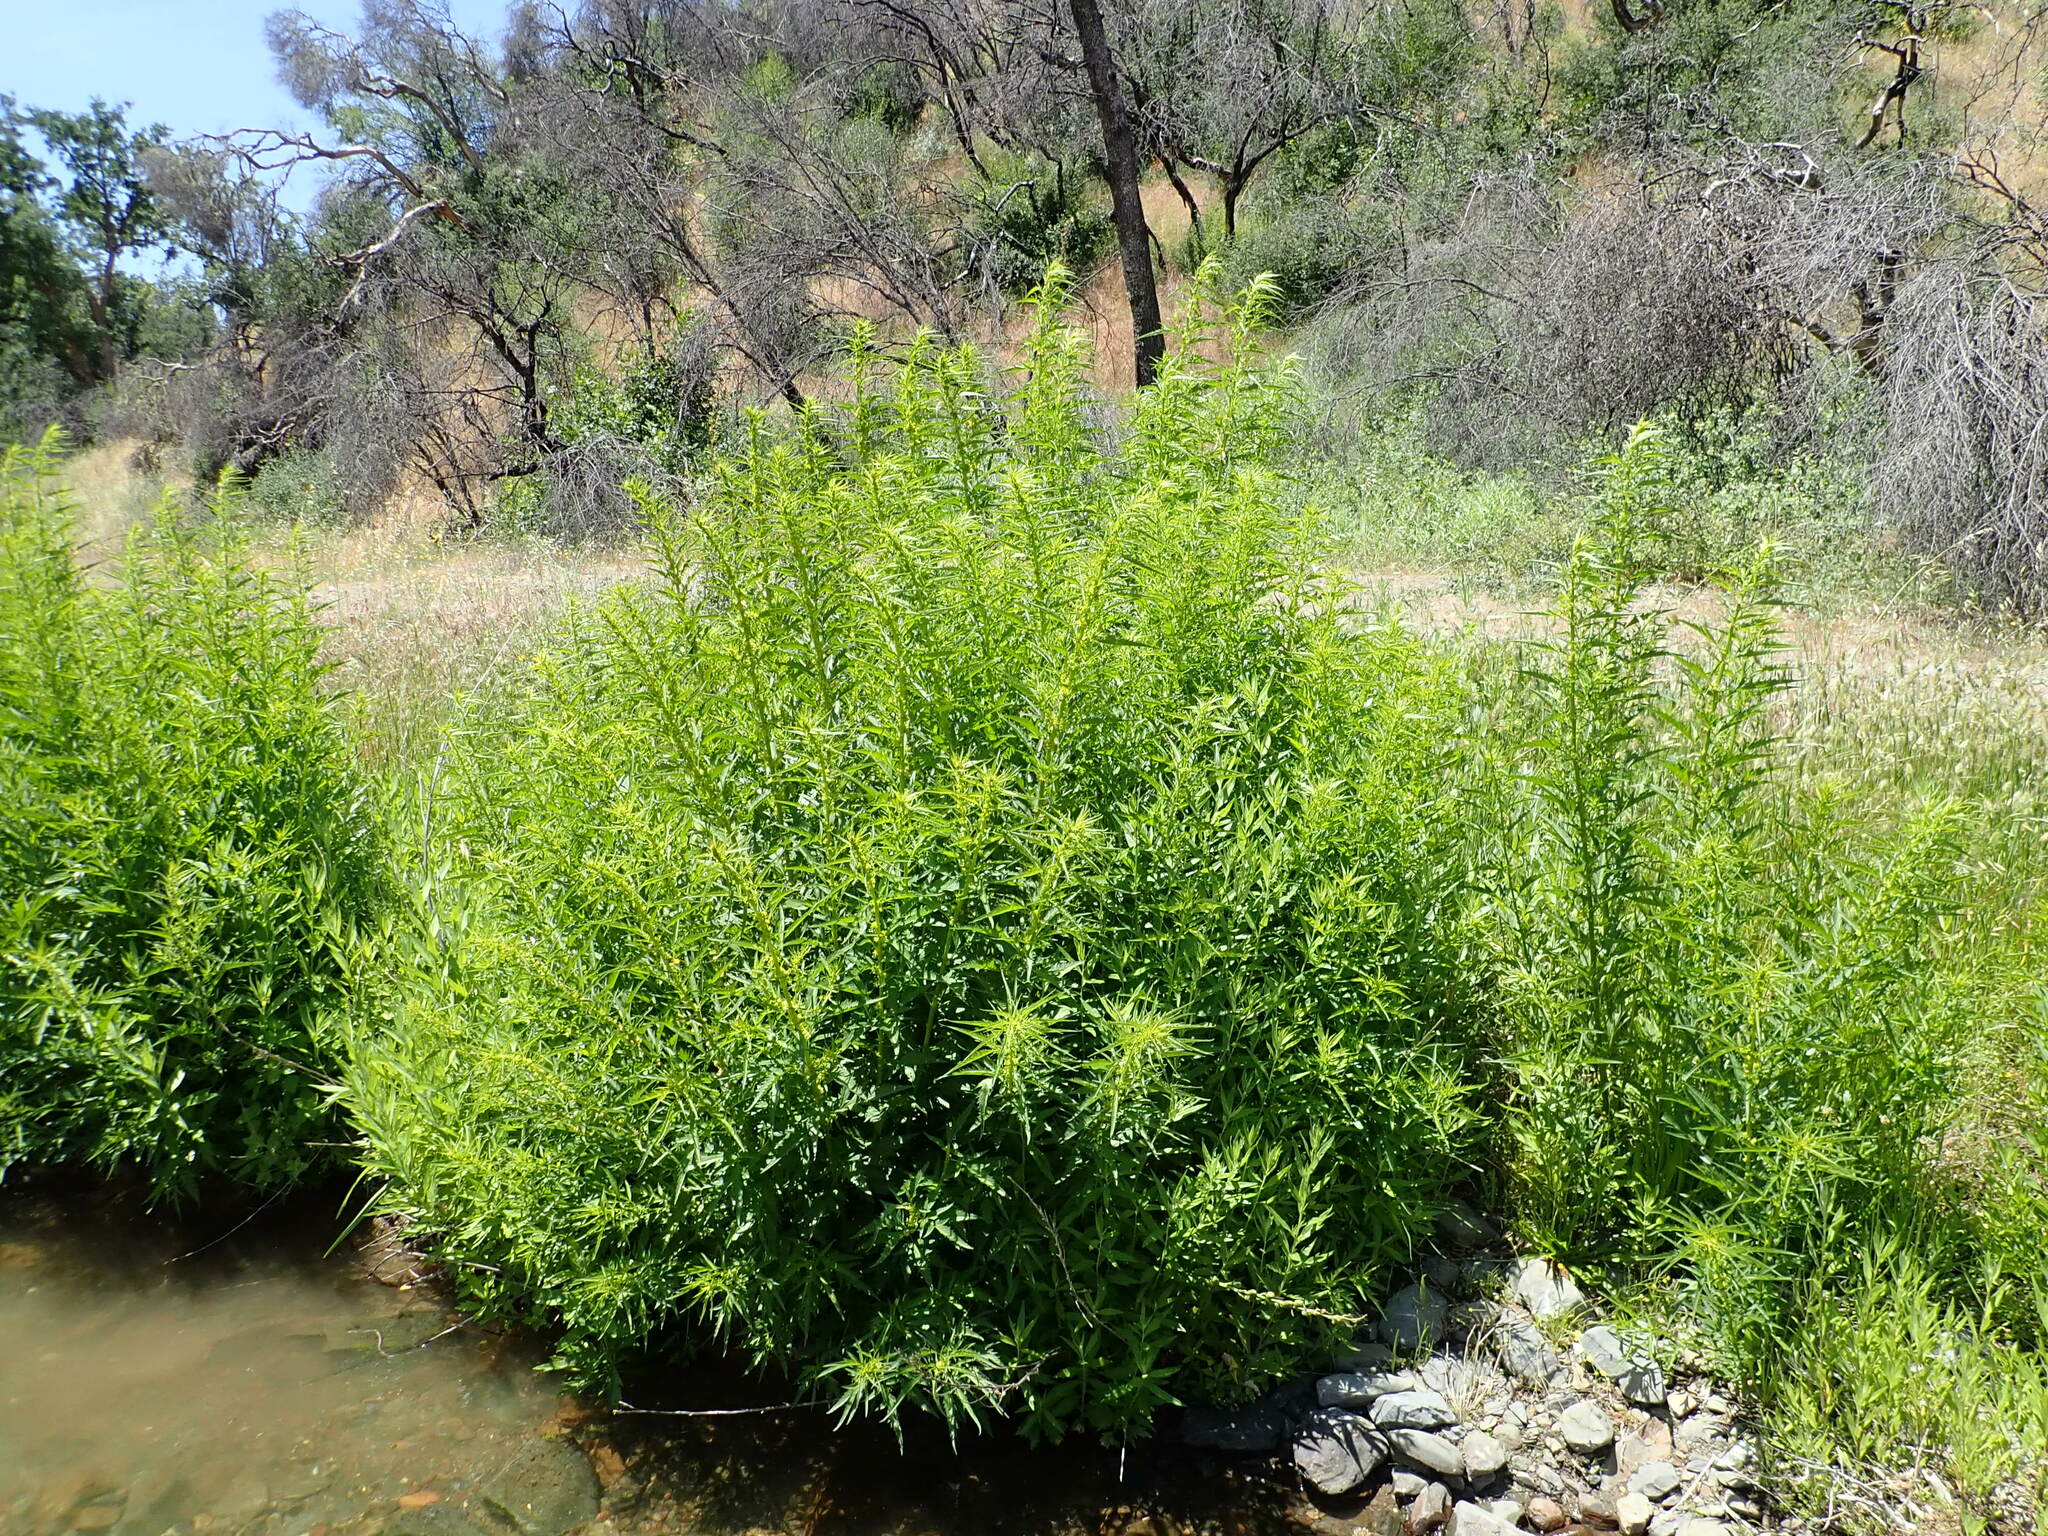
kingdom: Plantae
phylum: Tracheophyta
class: Magnoliopsida
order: Cucurbitales
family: Datiscaceae
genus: Datisca
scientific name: Datisca glomerata
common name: Durango-root
